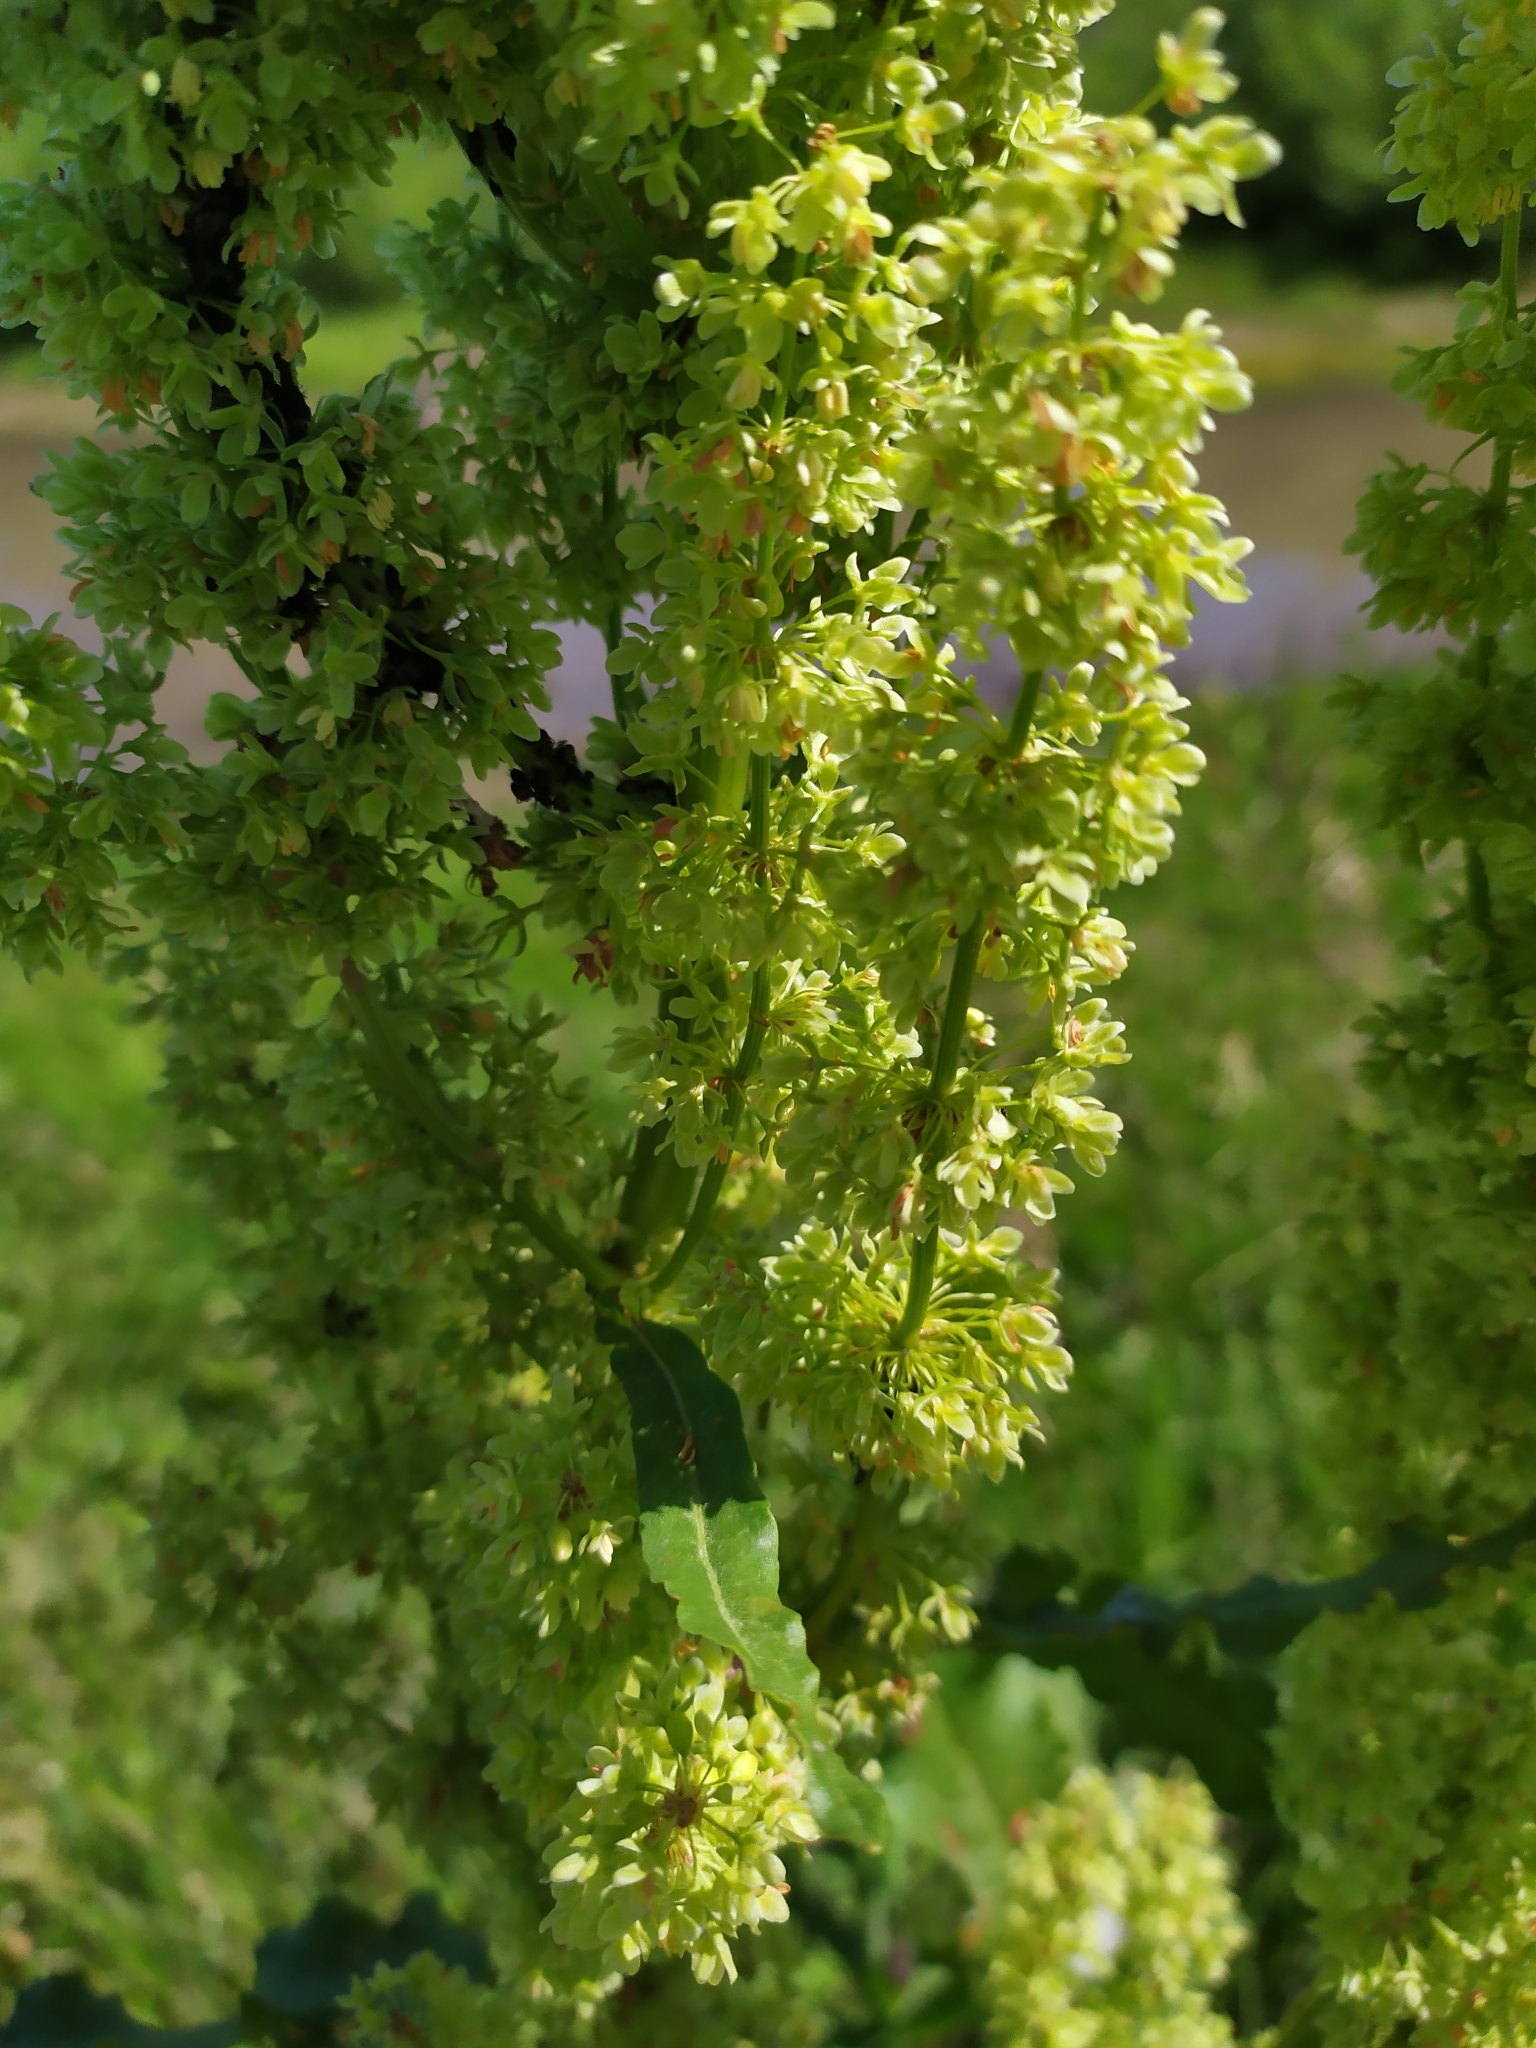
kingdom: Plantae
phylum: Tracheophyta
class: Magnoliopsida
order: Caryophyllales
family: Polygonaceae
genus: Rumex
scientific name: Rumex confertus
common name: Russian dock
